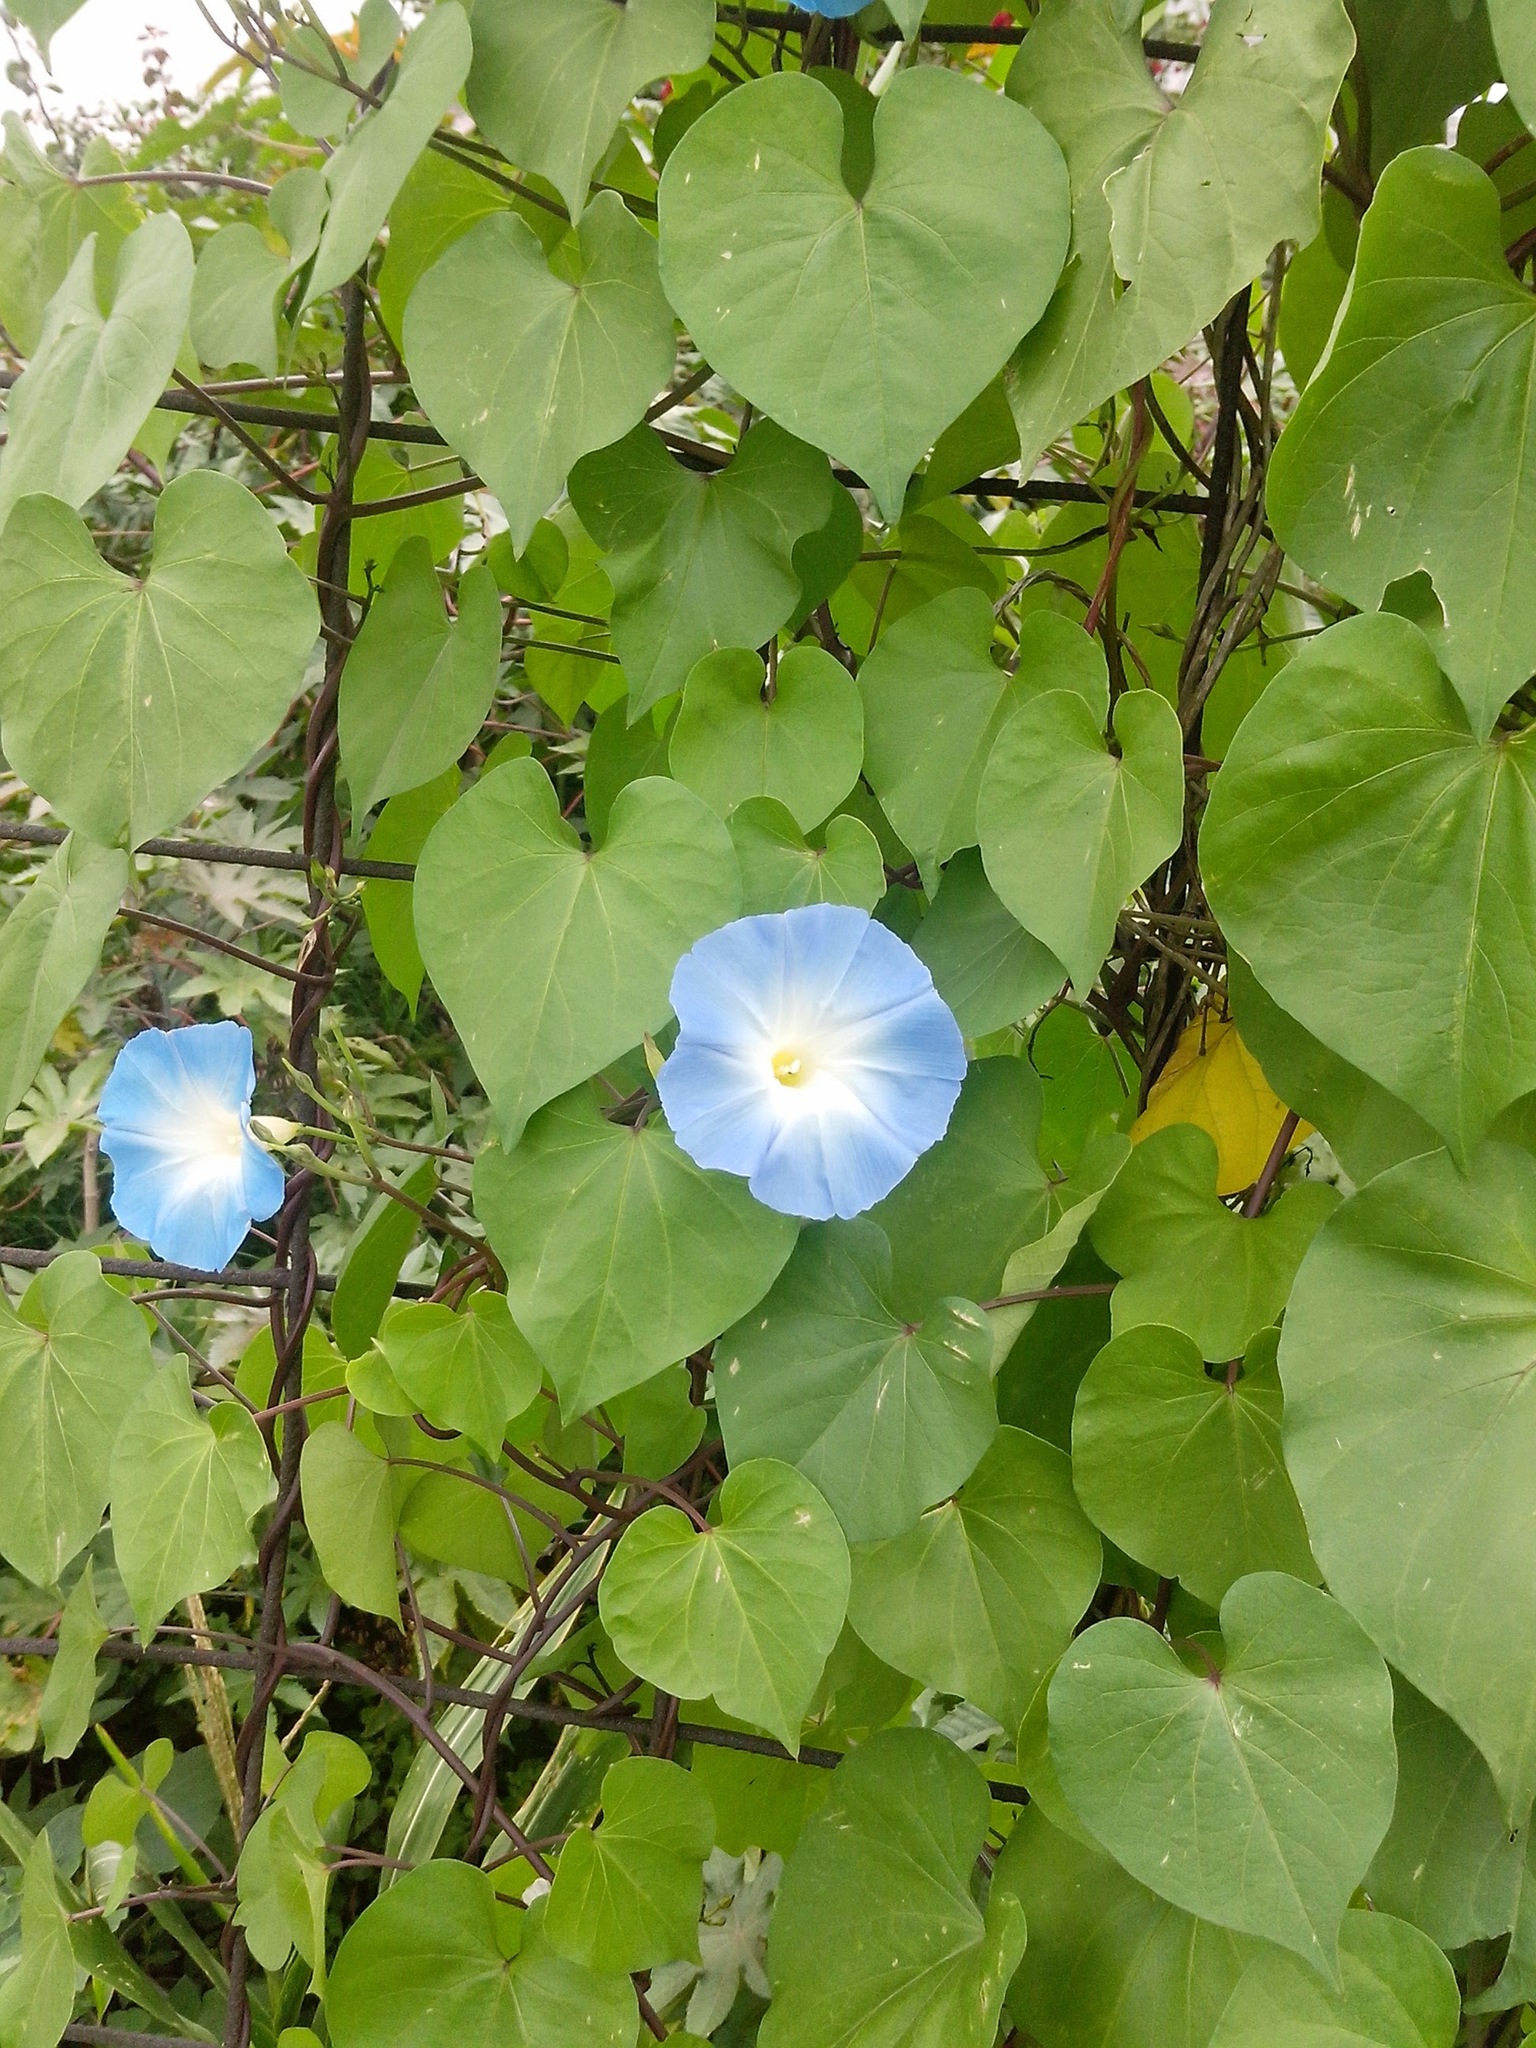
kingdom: Plantae
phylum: Tracheophyta
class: Magnoliopsida
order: Solanales
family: Convolvulaceae
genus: Ipomoea
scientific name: Ipomoea tricolor
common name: Morning-glory
